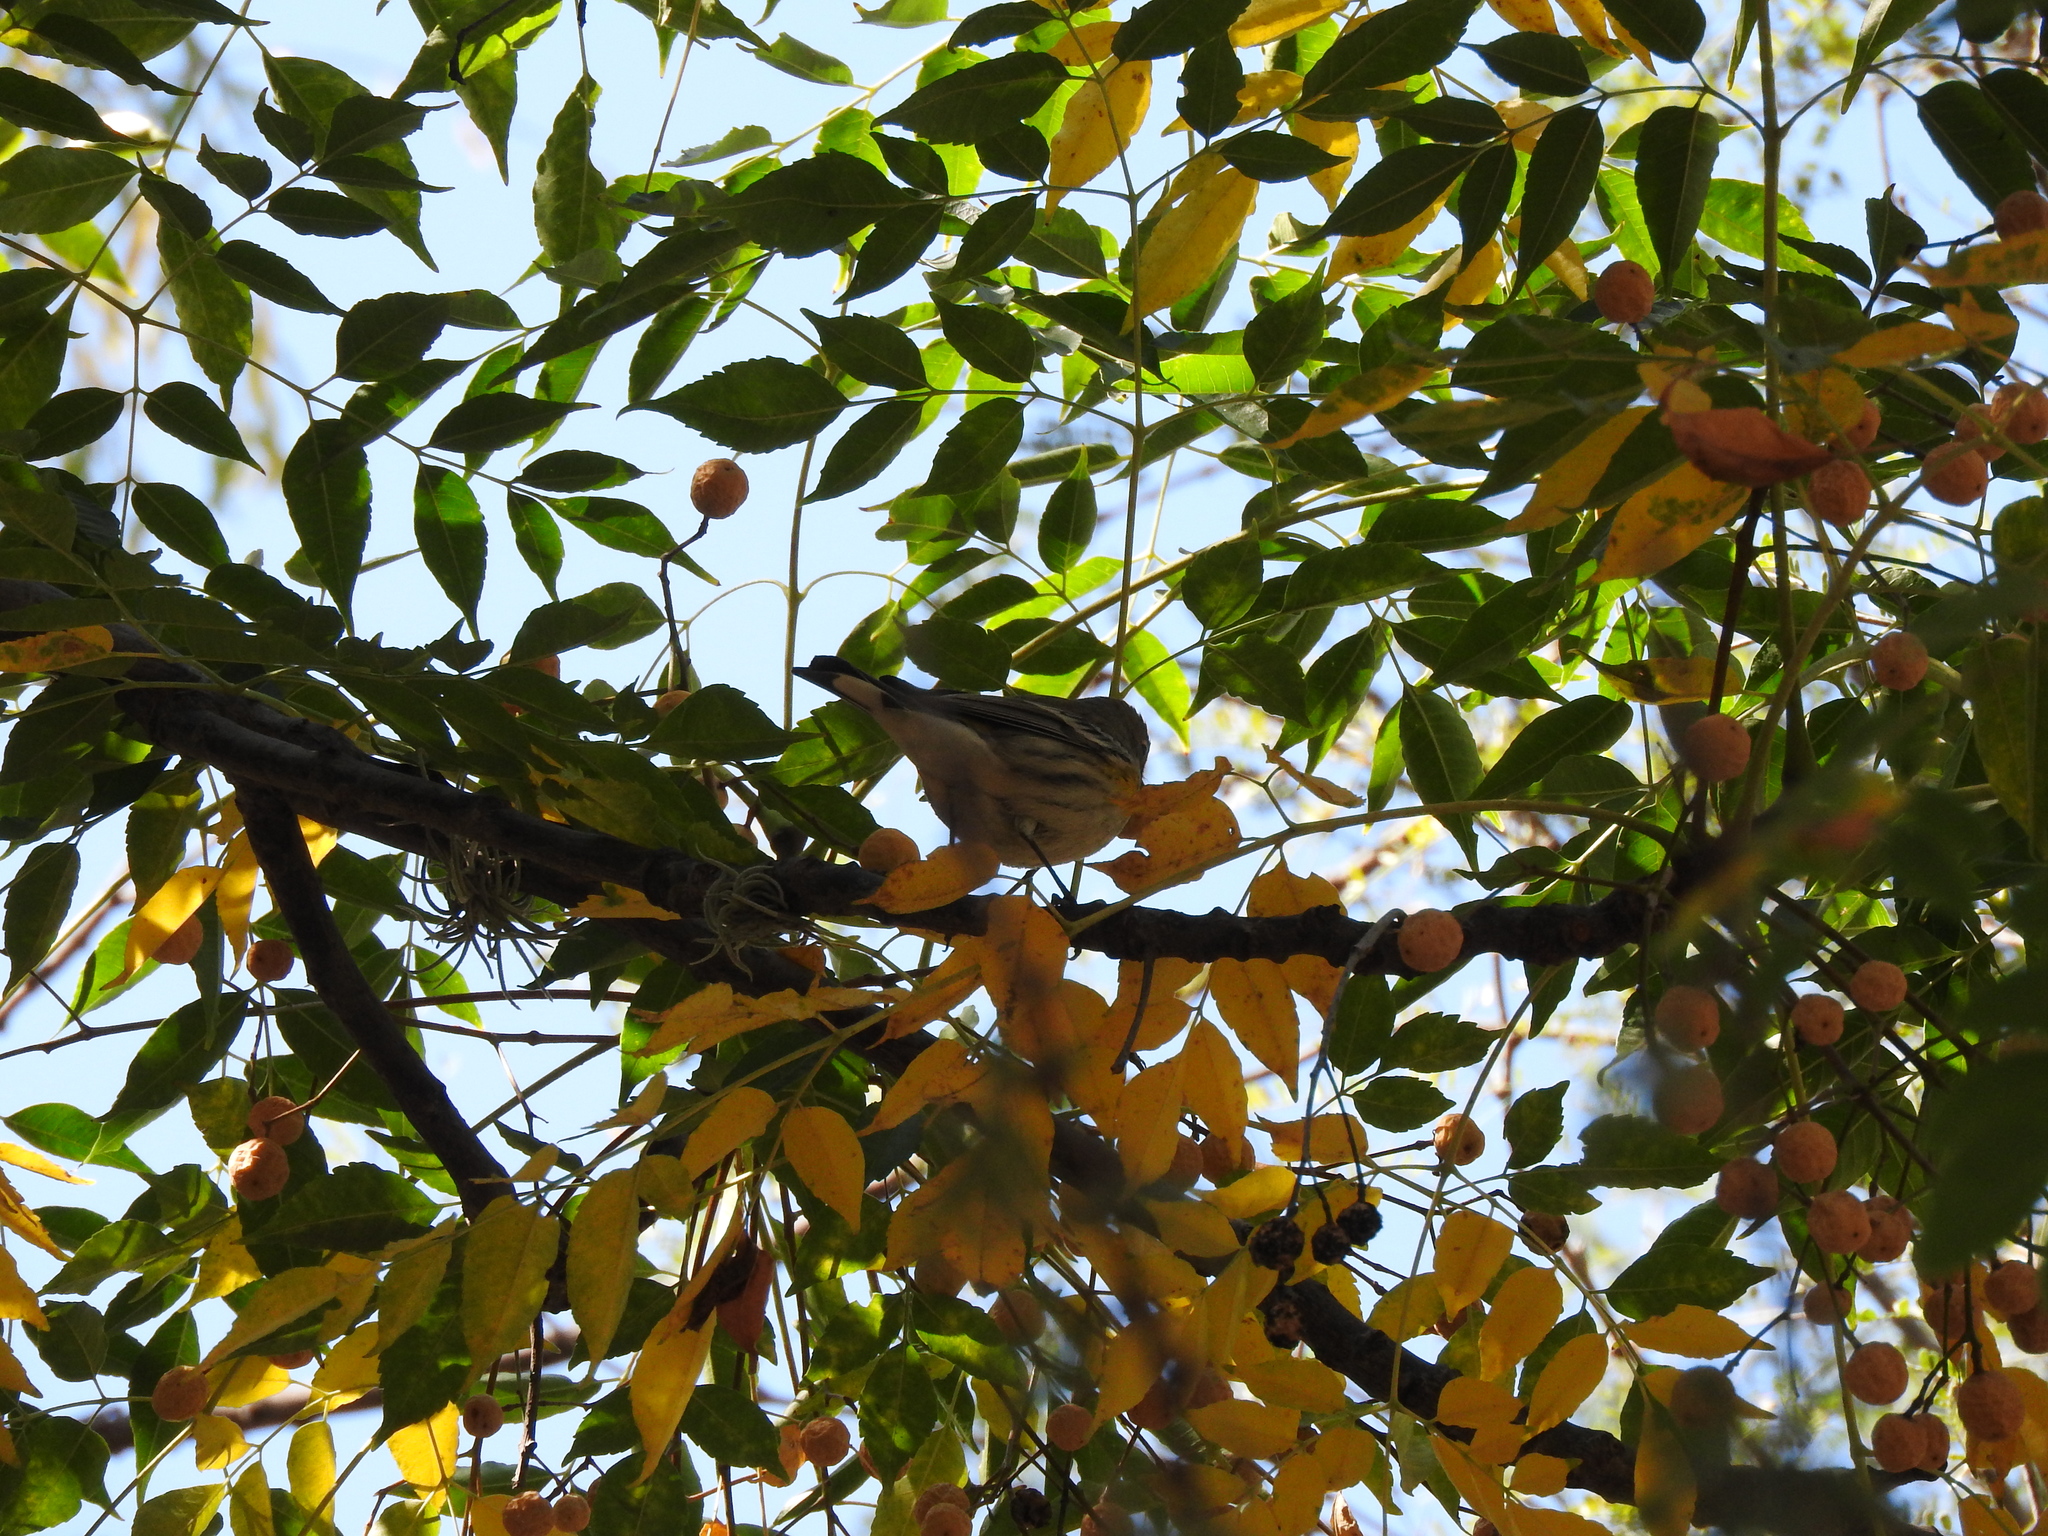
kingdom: Animalia
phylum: Chordata
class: Aves
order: Passeriformes
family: Parulidae
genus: Setophaga
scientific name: Setophaga coronata
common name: Myrtle warbler
